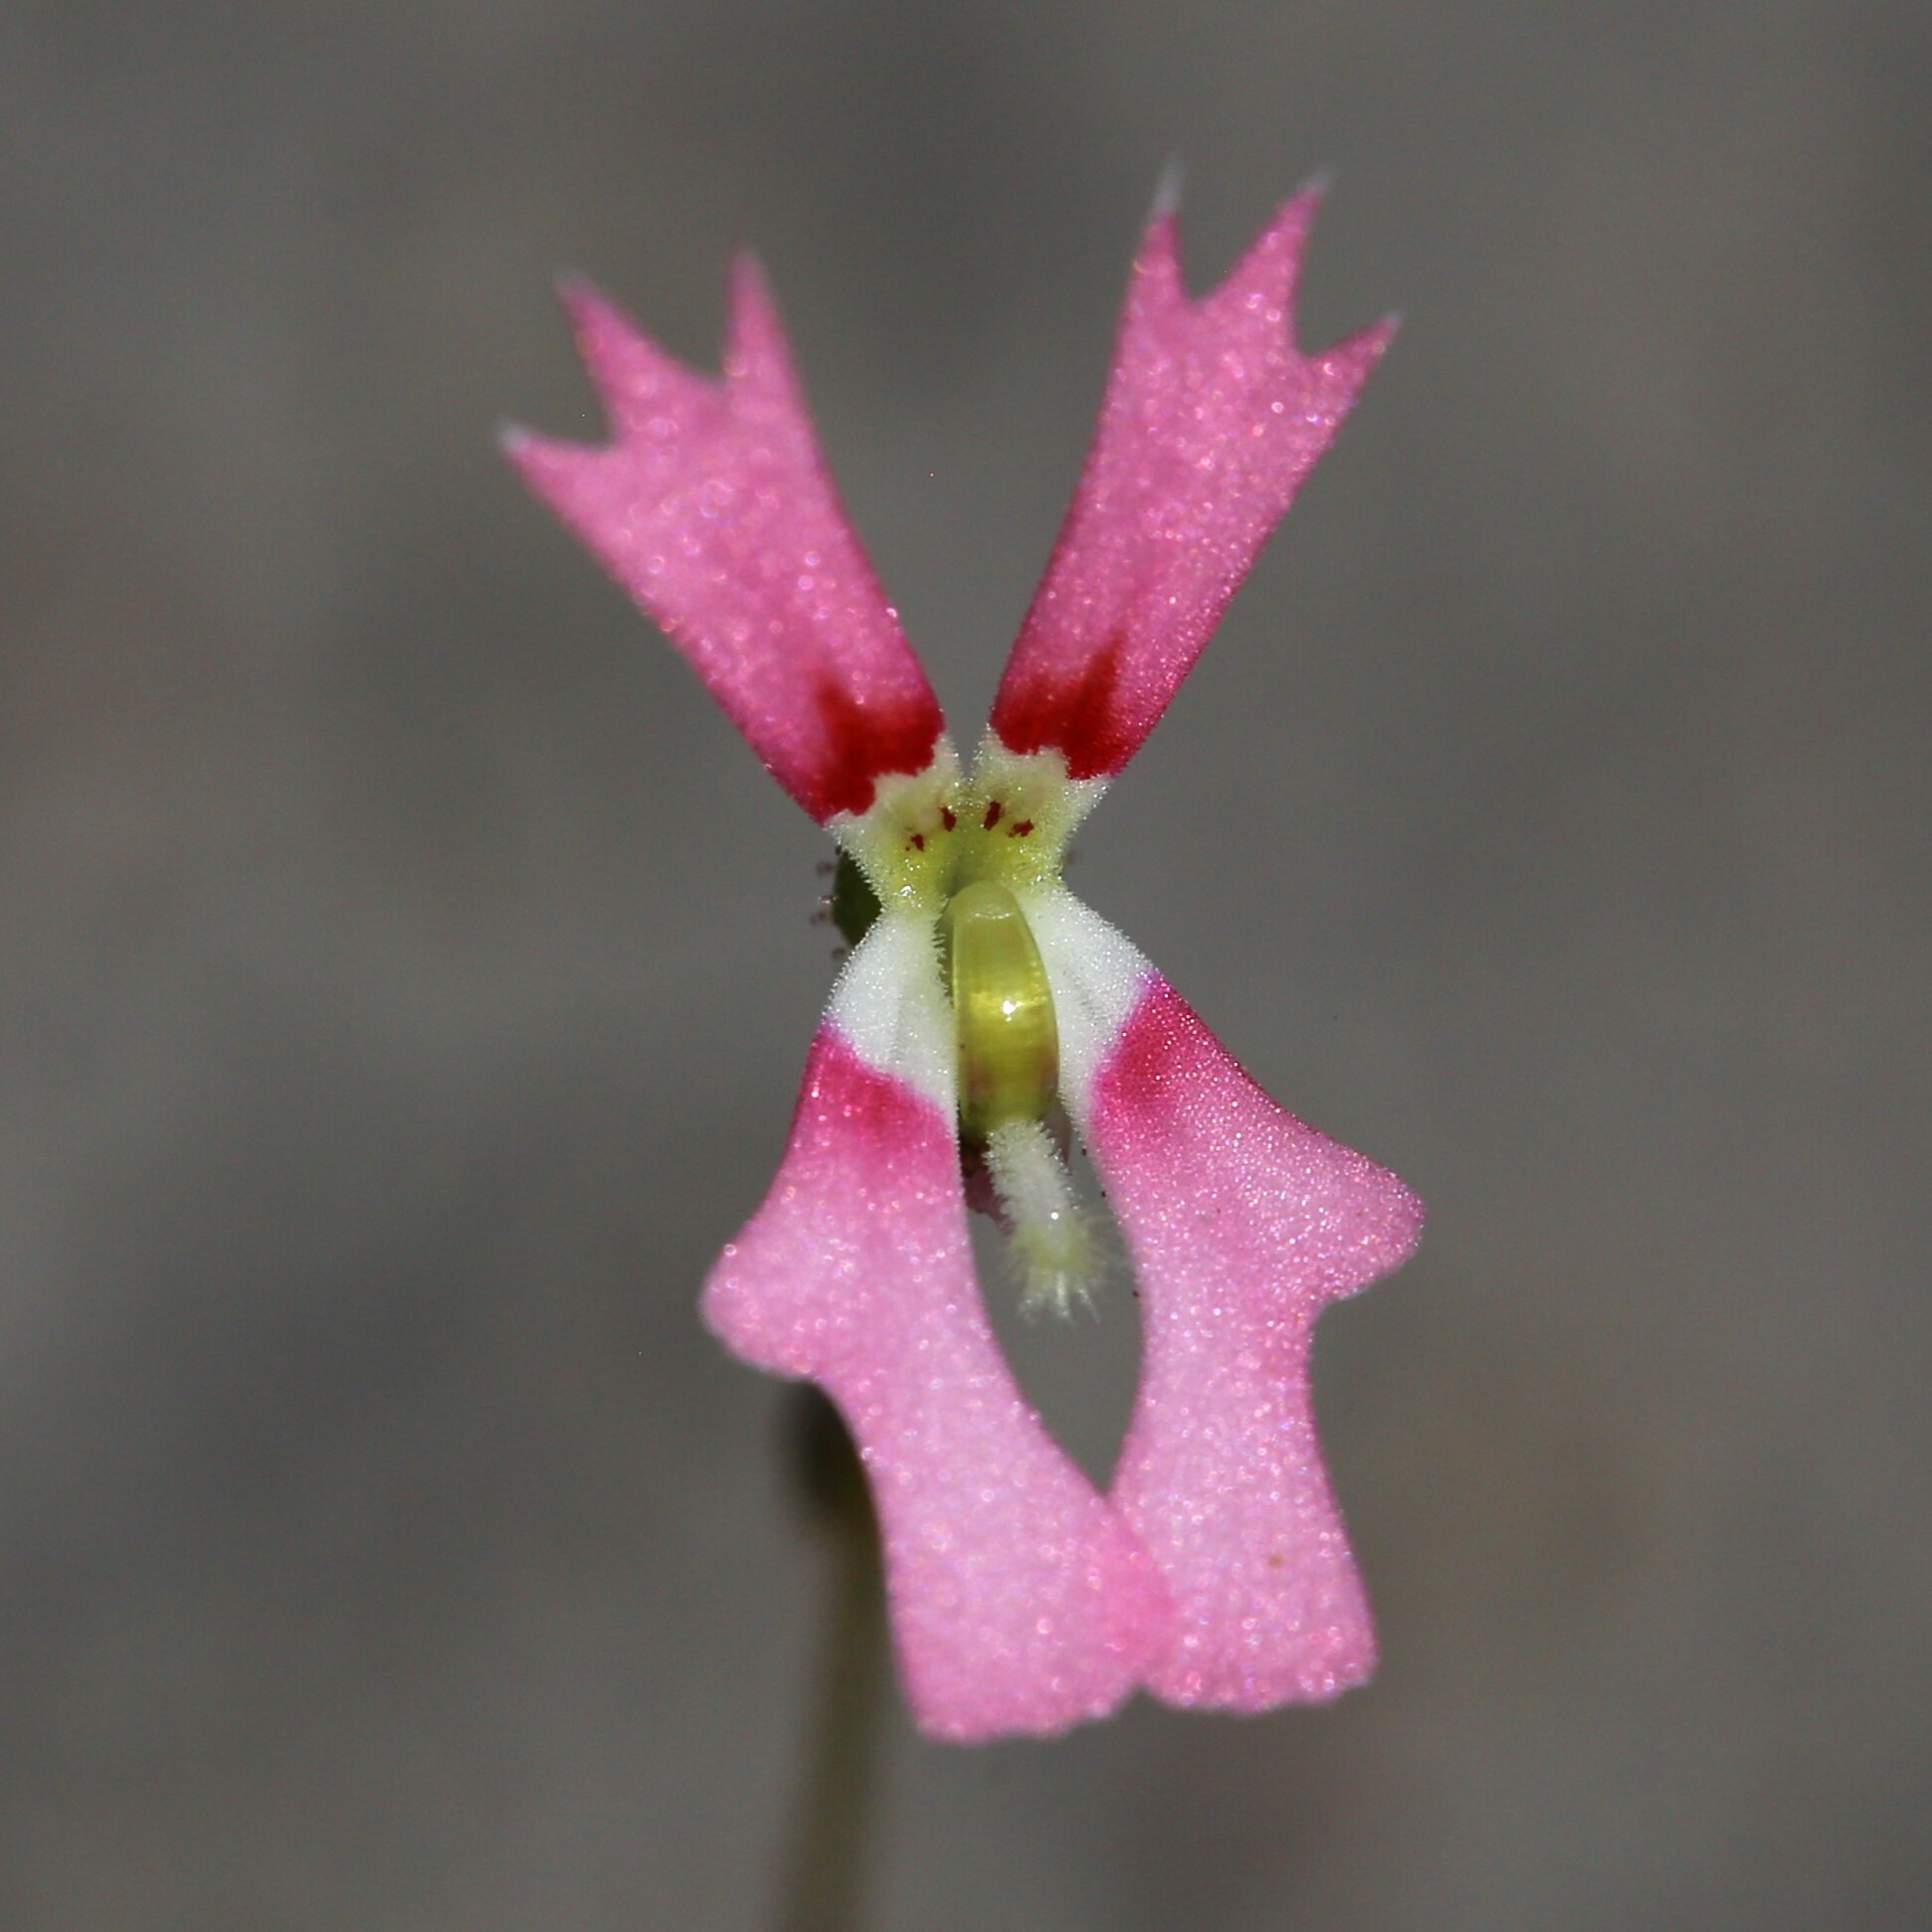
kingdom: Plantae
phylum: Tracheophyta
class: Magnoliopsida
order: Asterales
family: Stylidiaceae
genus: Stylidium
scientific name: Stylidium ecorne
